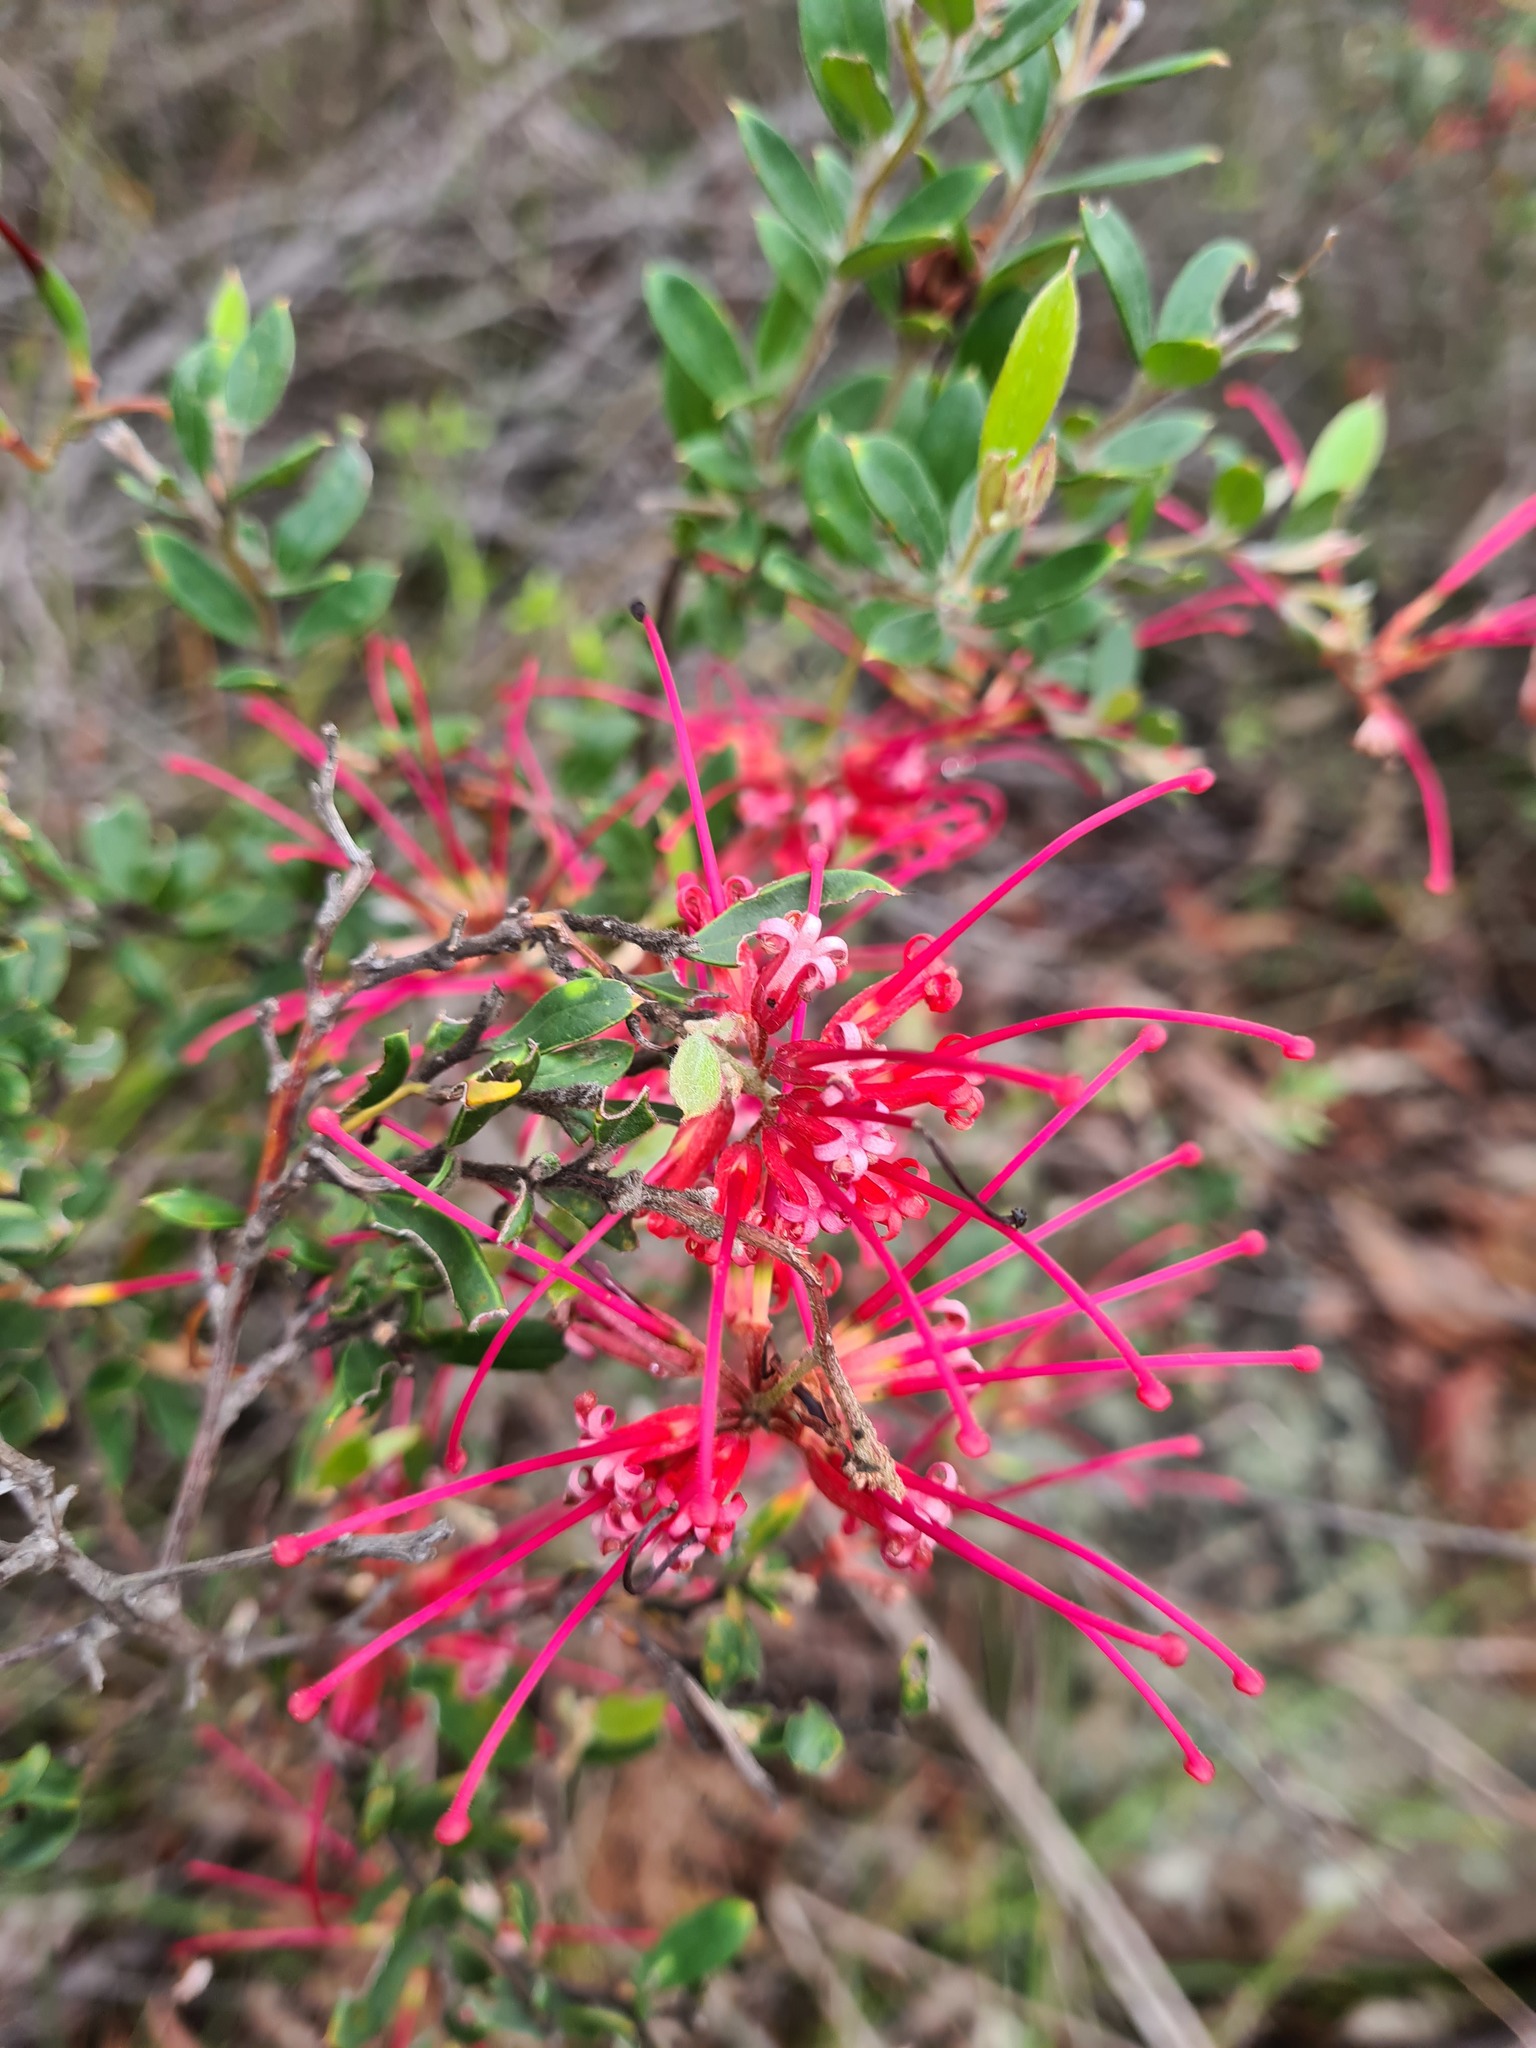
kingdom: Plantae
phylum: Tracheophyta
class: Magnoliopsida
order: Proteales
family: Proteaceae
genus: Grevillea
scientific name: Grevillea speciosa
